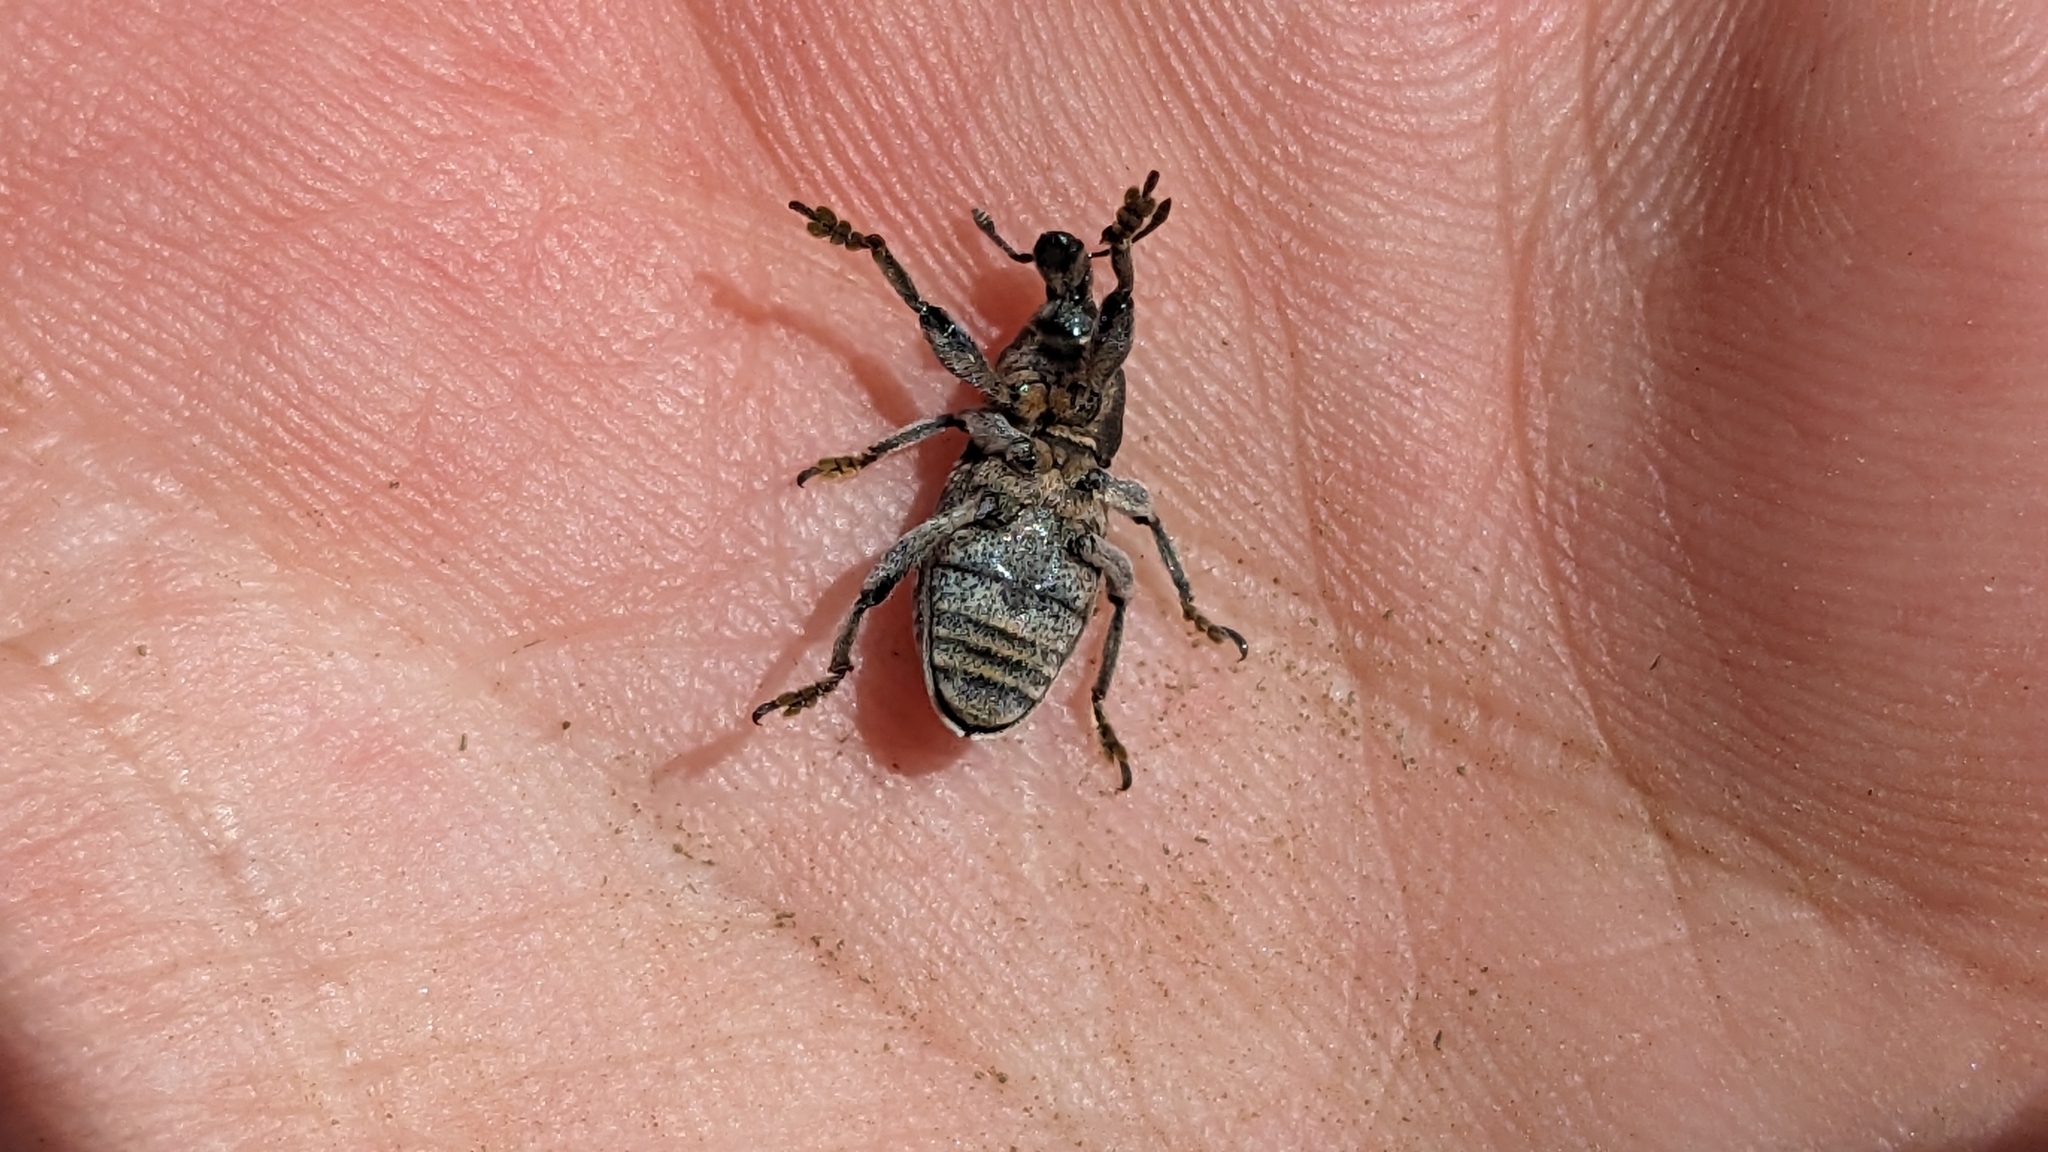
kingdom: Animalia
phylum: Arthropoda
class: Insecta
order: Coleoptera
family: Curculionidae
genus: Pseudocleonus
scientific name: Pseudocleonus cinereus
